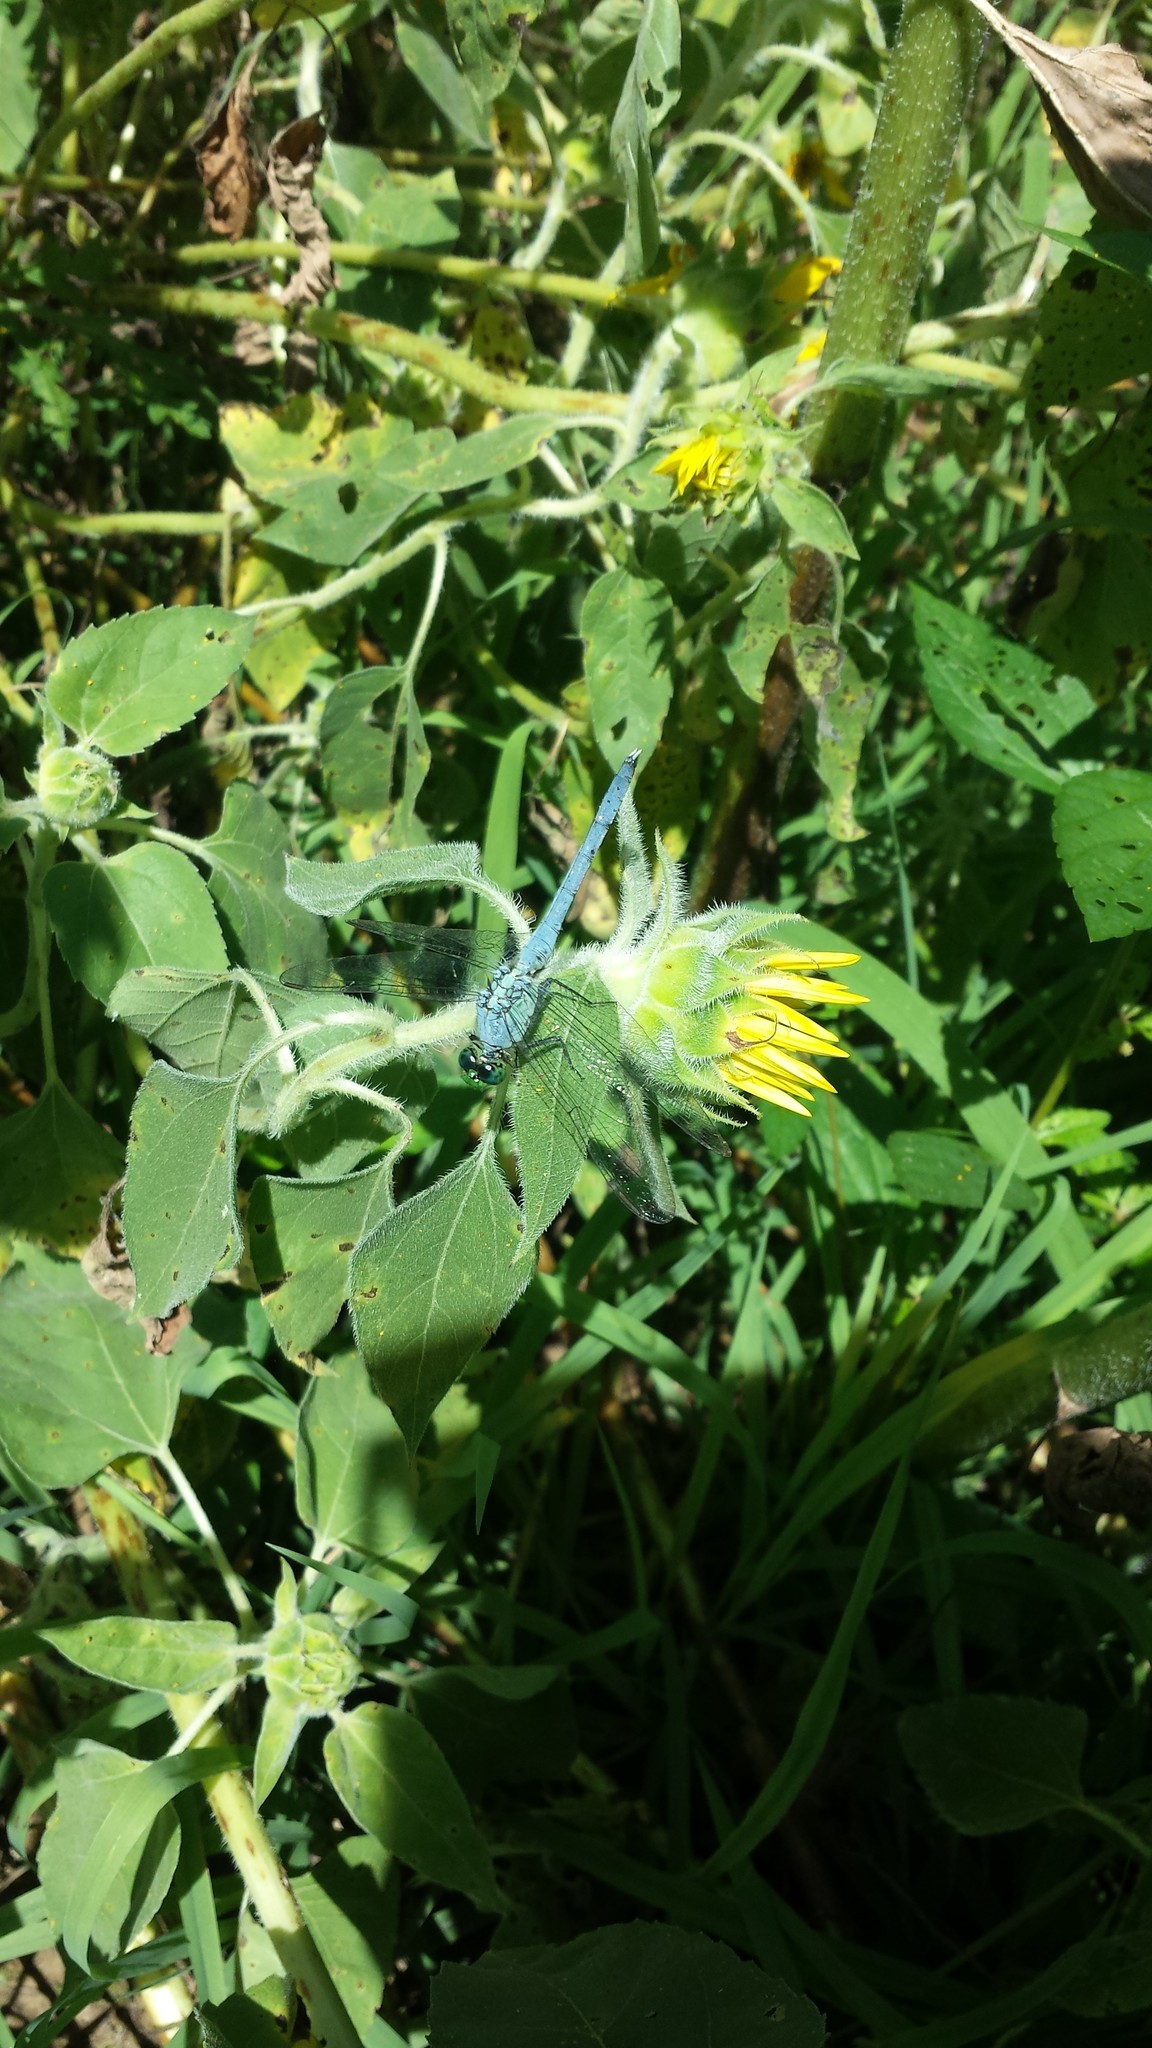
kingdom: Animalia
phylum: Arthropoda
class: Insecta
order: Odonata
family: Libellulidae
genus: Erythemis
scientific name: Erythemis simplicicollis
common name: Eastern pondhawk
